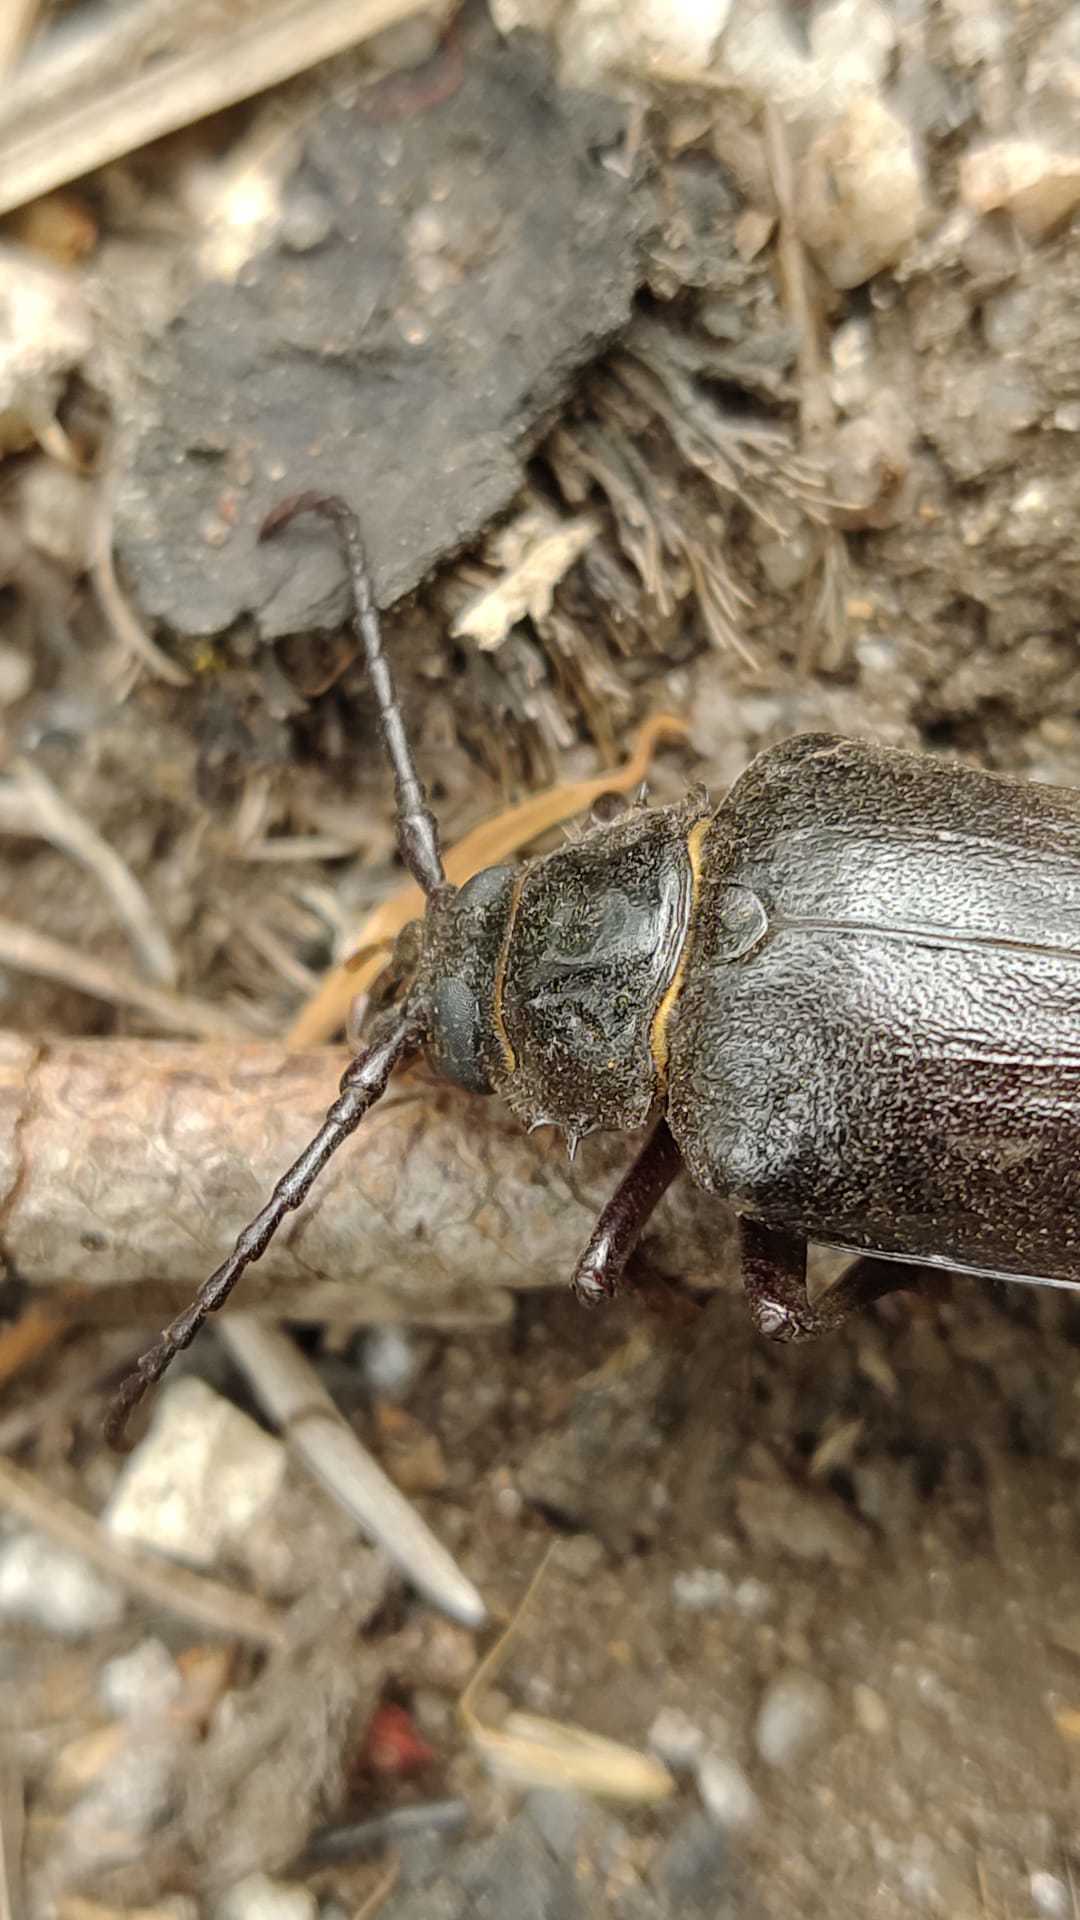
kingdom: Animalia
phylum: Arthropoda
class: Insecta
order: Coleoptera
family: Cerambycidae
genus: Prionus
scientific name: Prionus coriarius
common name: Tanner beetle
